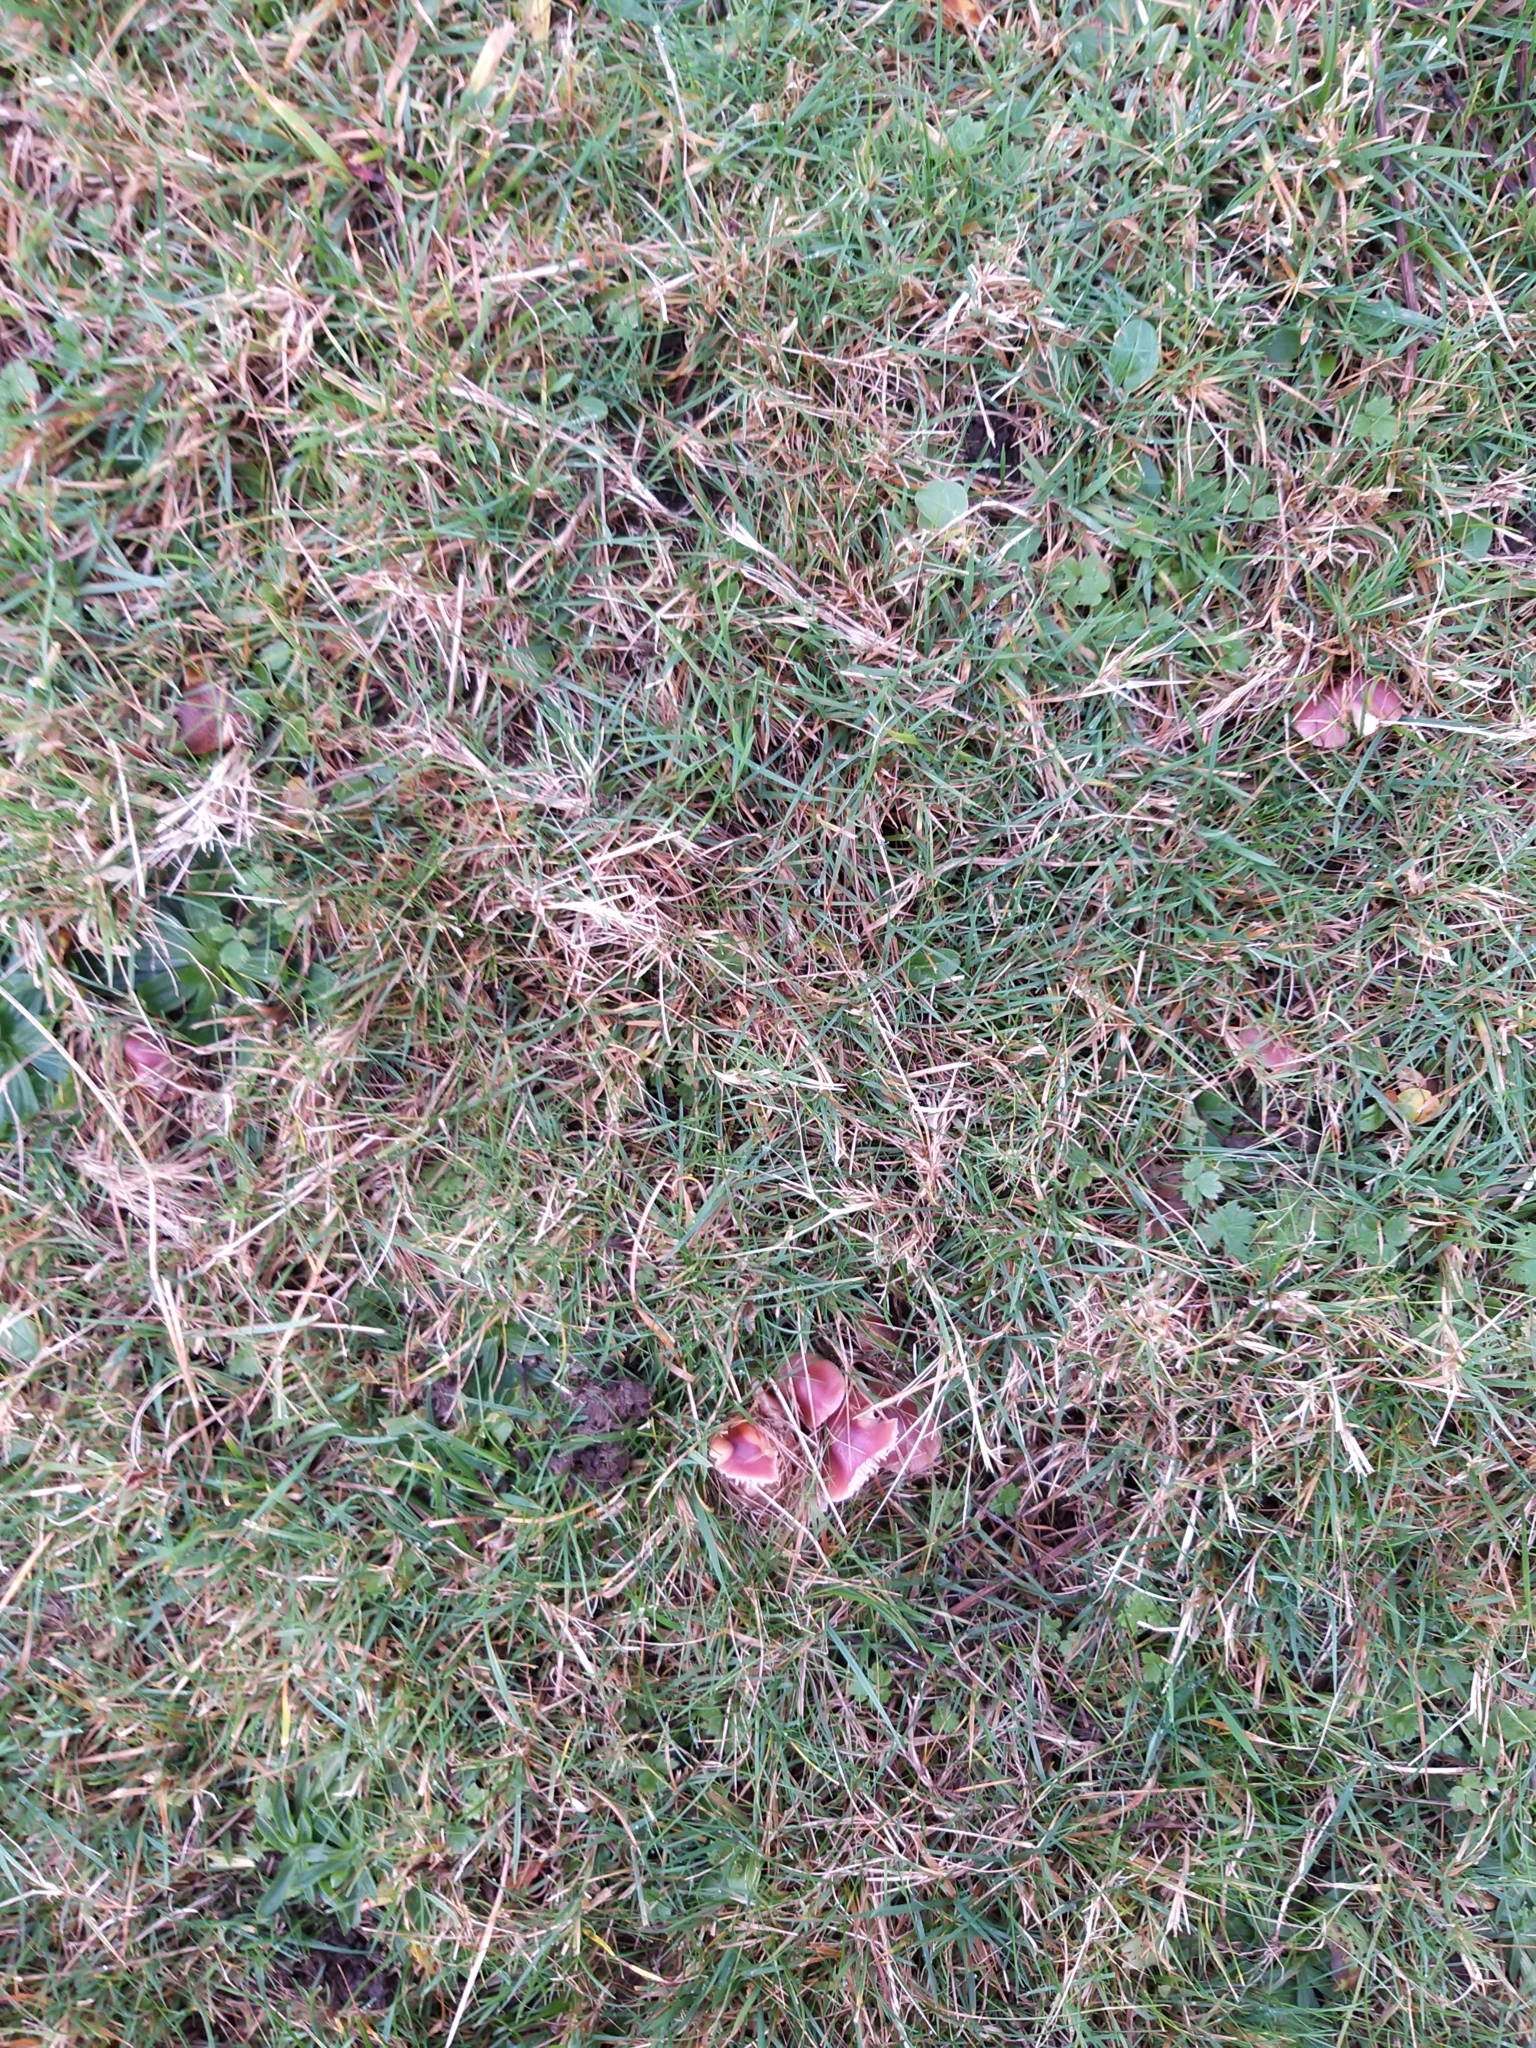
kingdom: Fungi
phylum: Basidiomycota
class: Agaricomycetes
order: Agaricales
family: Hygrophoraceae
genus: Gliophorus
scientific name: Gliophorus reginae
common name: Jubilee waxcap
